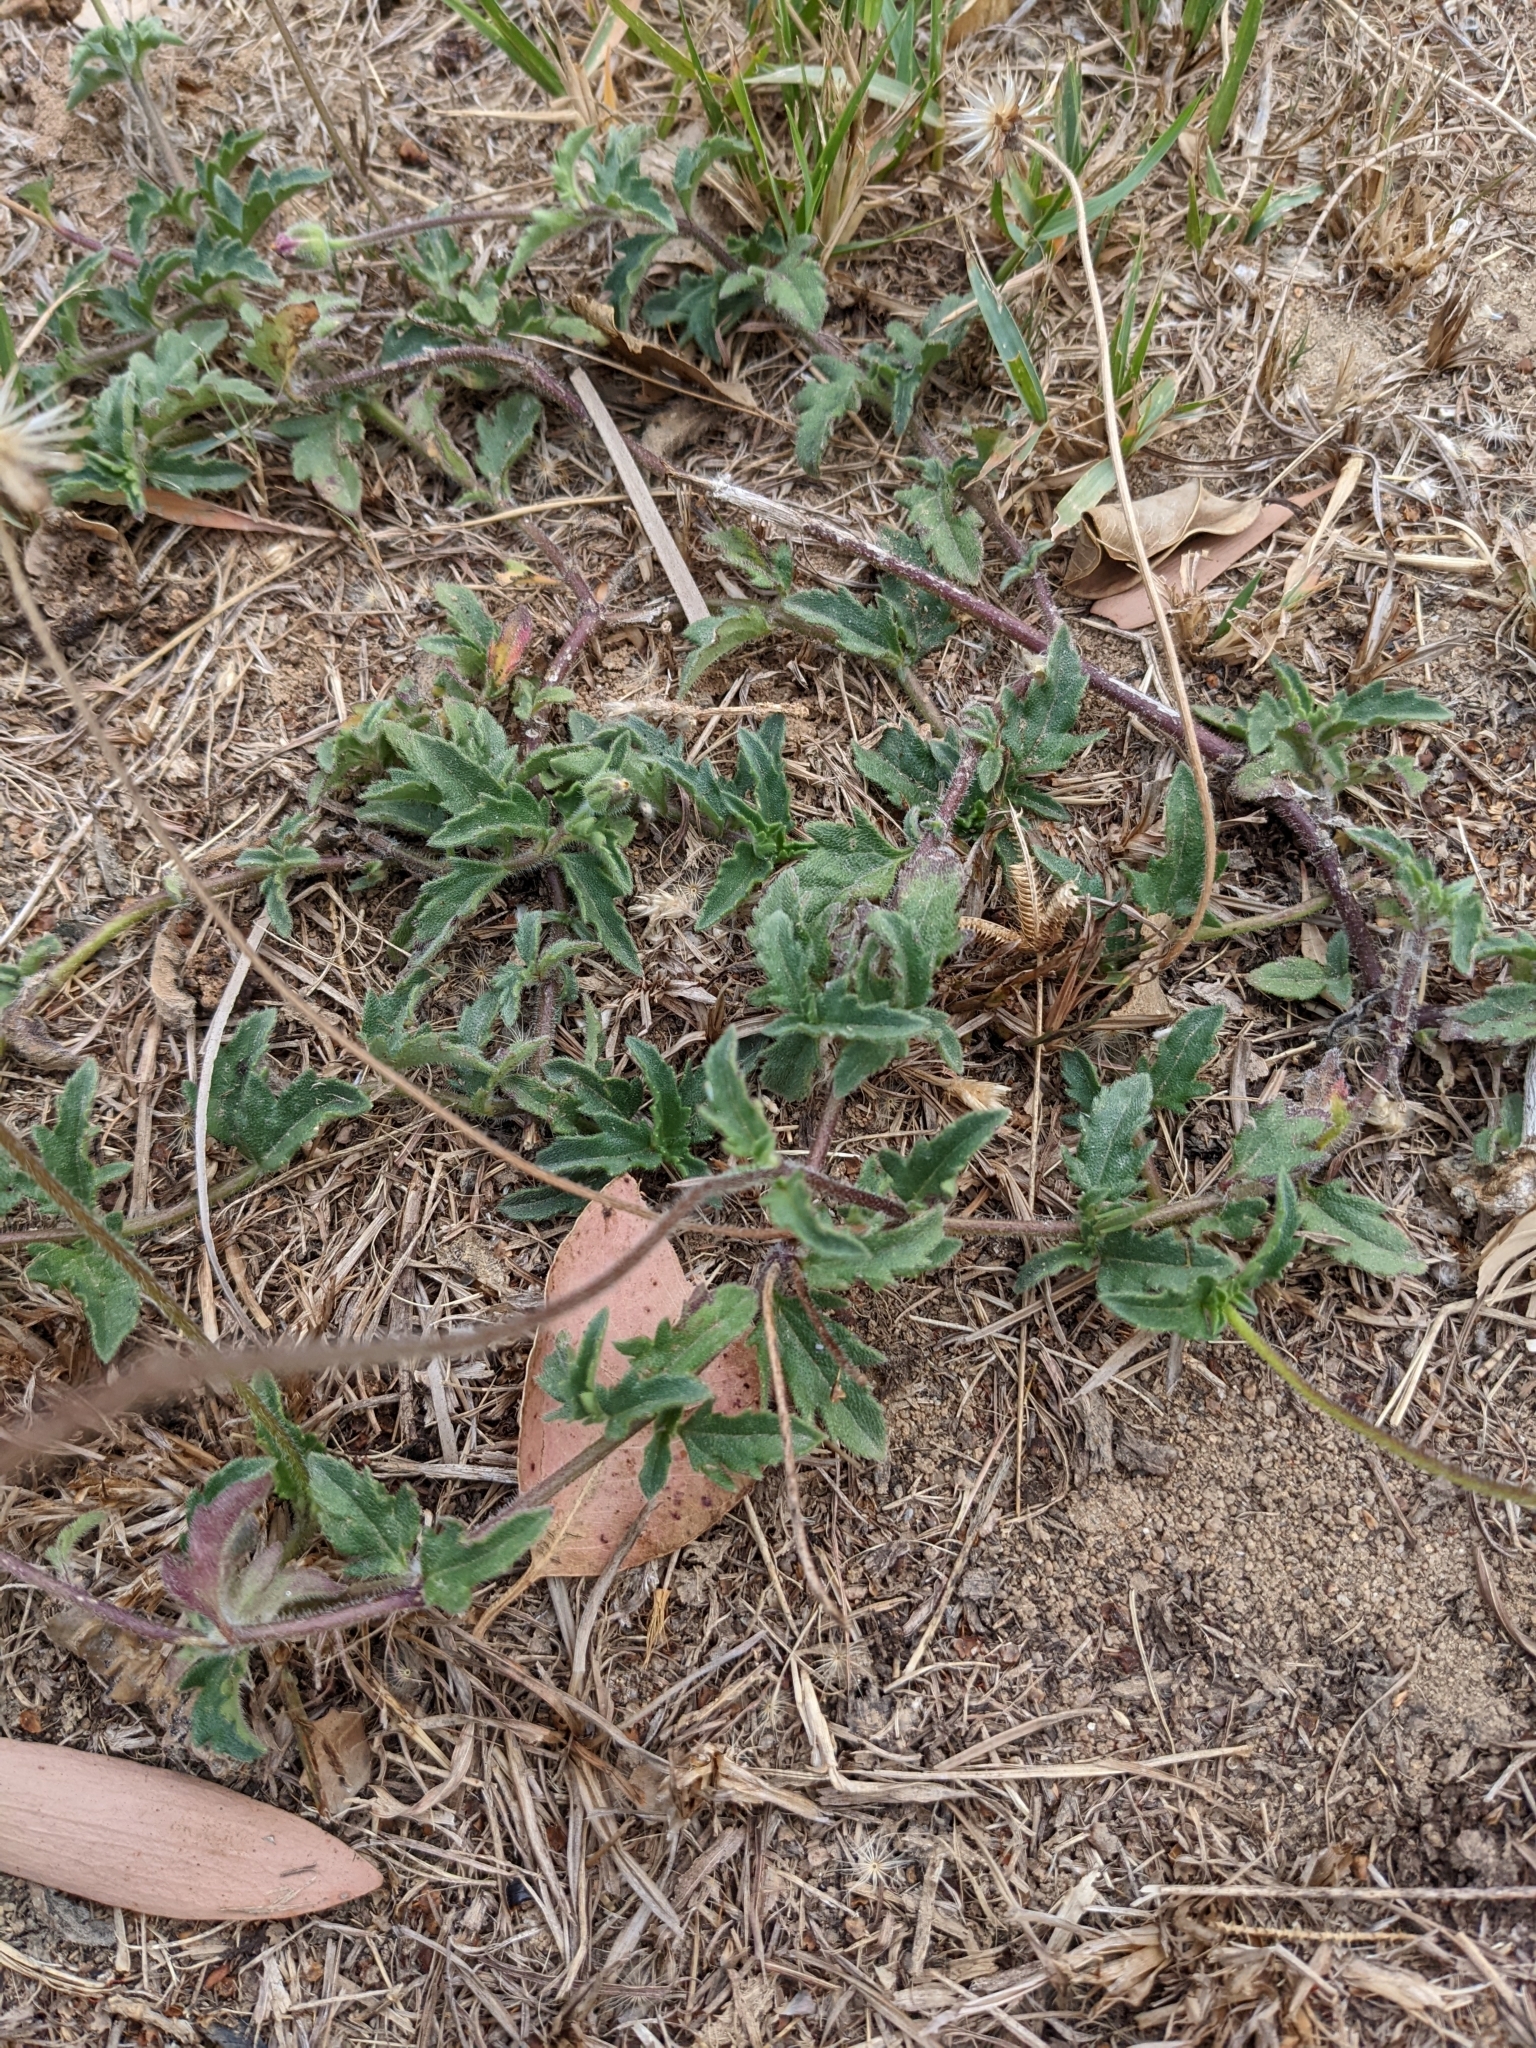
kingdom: Plantae
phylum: Tracheophyta
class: Magnoliopsida
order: Asterales
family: Asteraceae
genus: Tridax
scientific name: Tridax procumbens
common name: Coatbuttons
